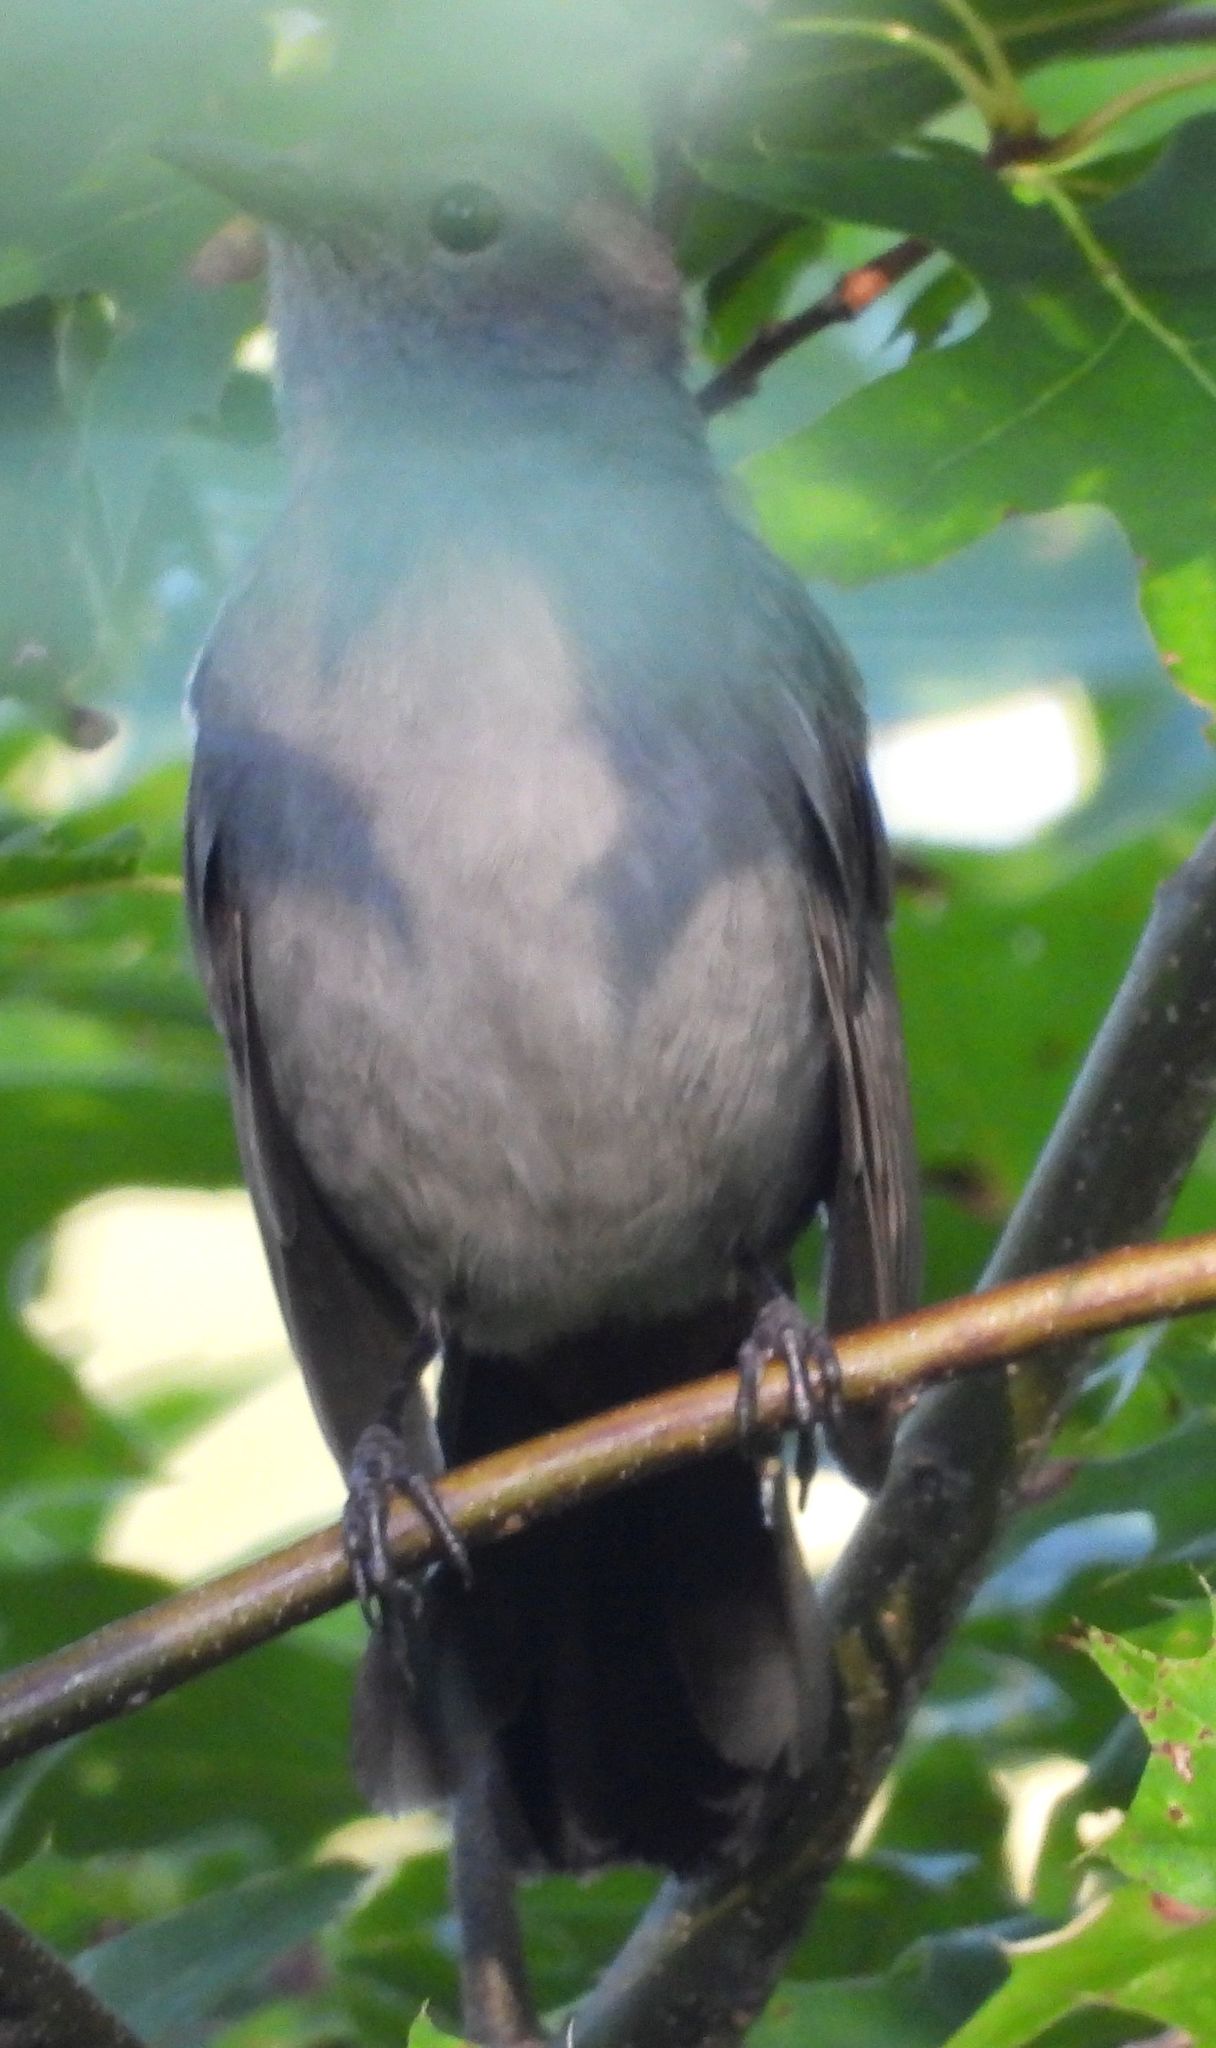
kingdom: Animalia
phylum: Chordata
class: Aves
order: Passeriformes
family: Mimidae
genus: Dumetella
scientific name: Dumetella carolinensis
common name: Gray catbird
